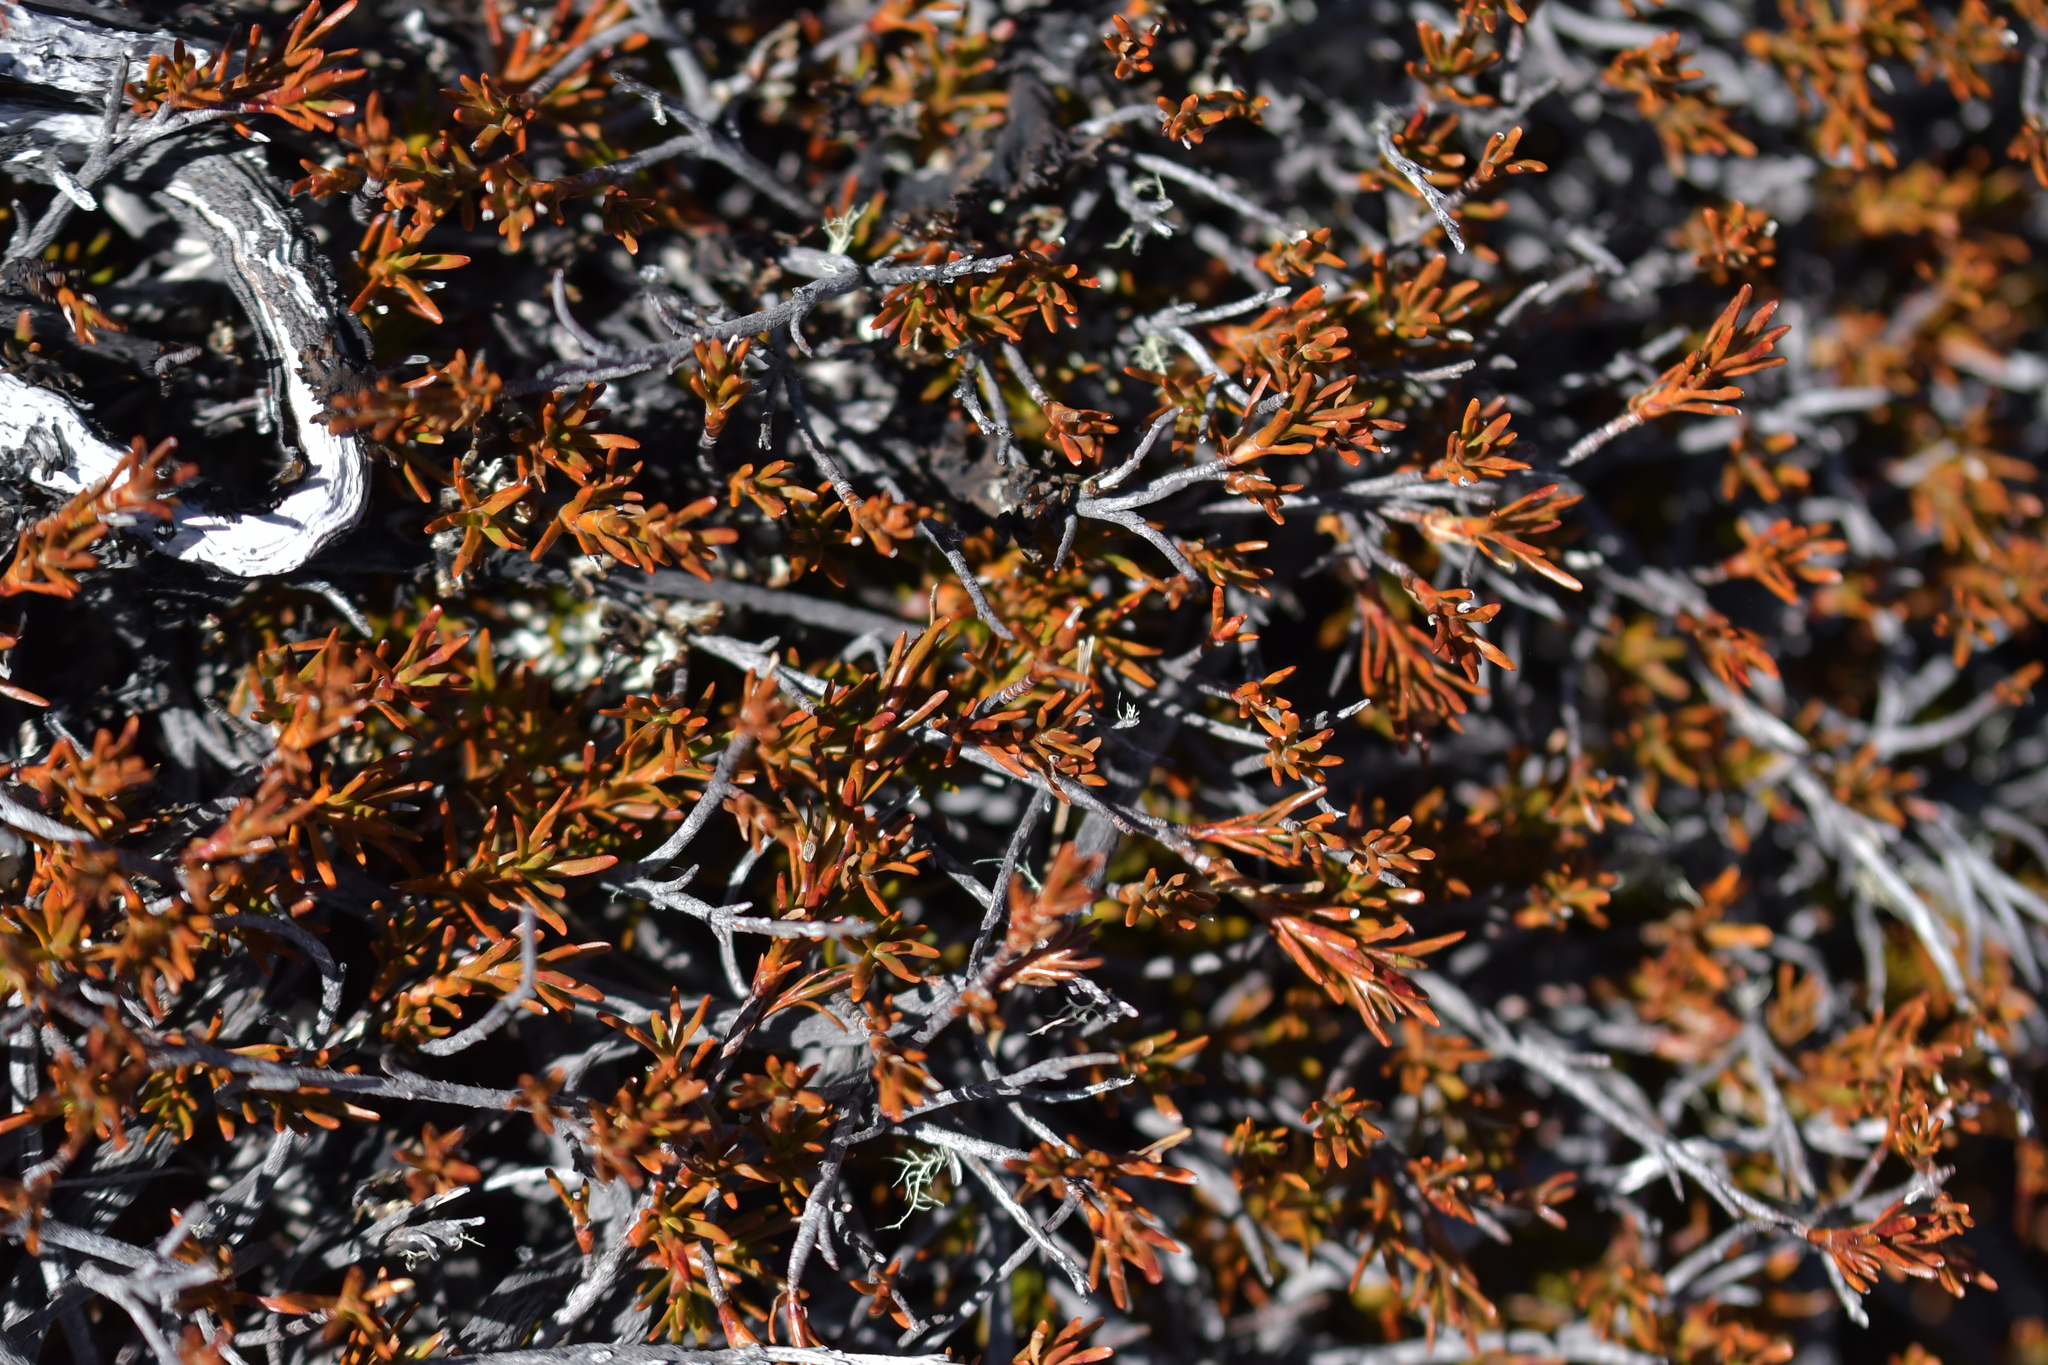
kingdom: Plantae
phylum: Tracheophyta
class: Magnoliopsida
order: Ericales
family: Ericaceae
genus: Dracophyllum
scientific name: Dracophyllum pronum
